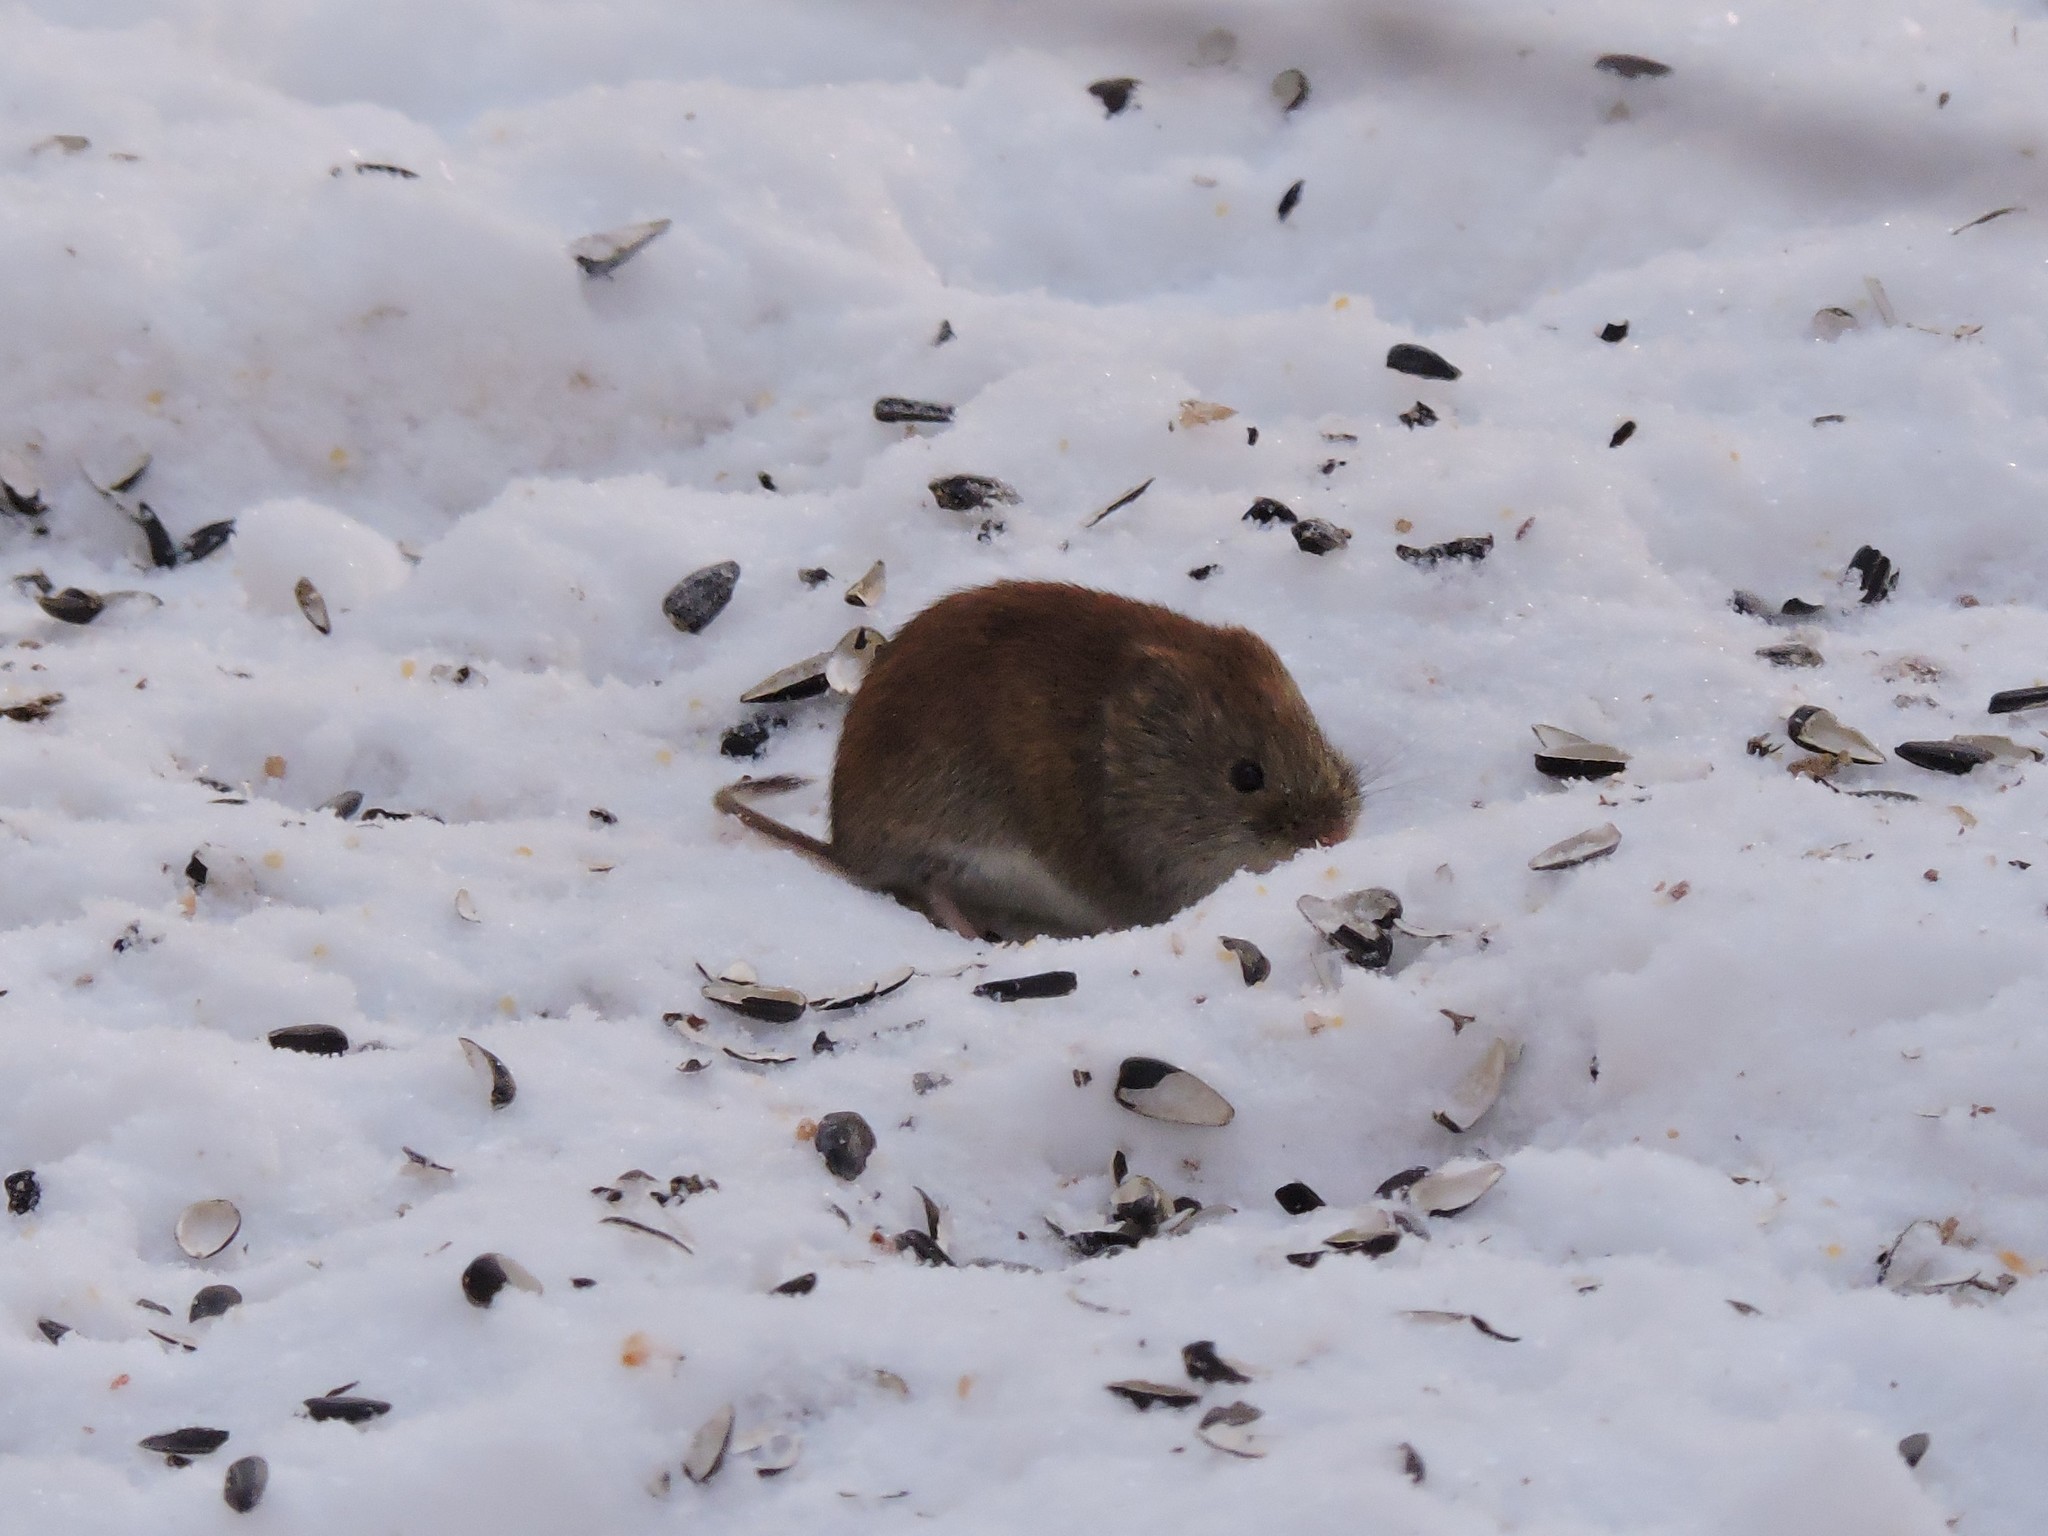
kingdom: Animalia
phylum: Chordata
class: Mammalia
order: Rodentia
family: Cricetidae
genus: Myodes
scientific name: Myodes glareolus
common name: Bank vole
